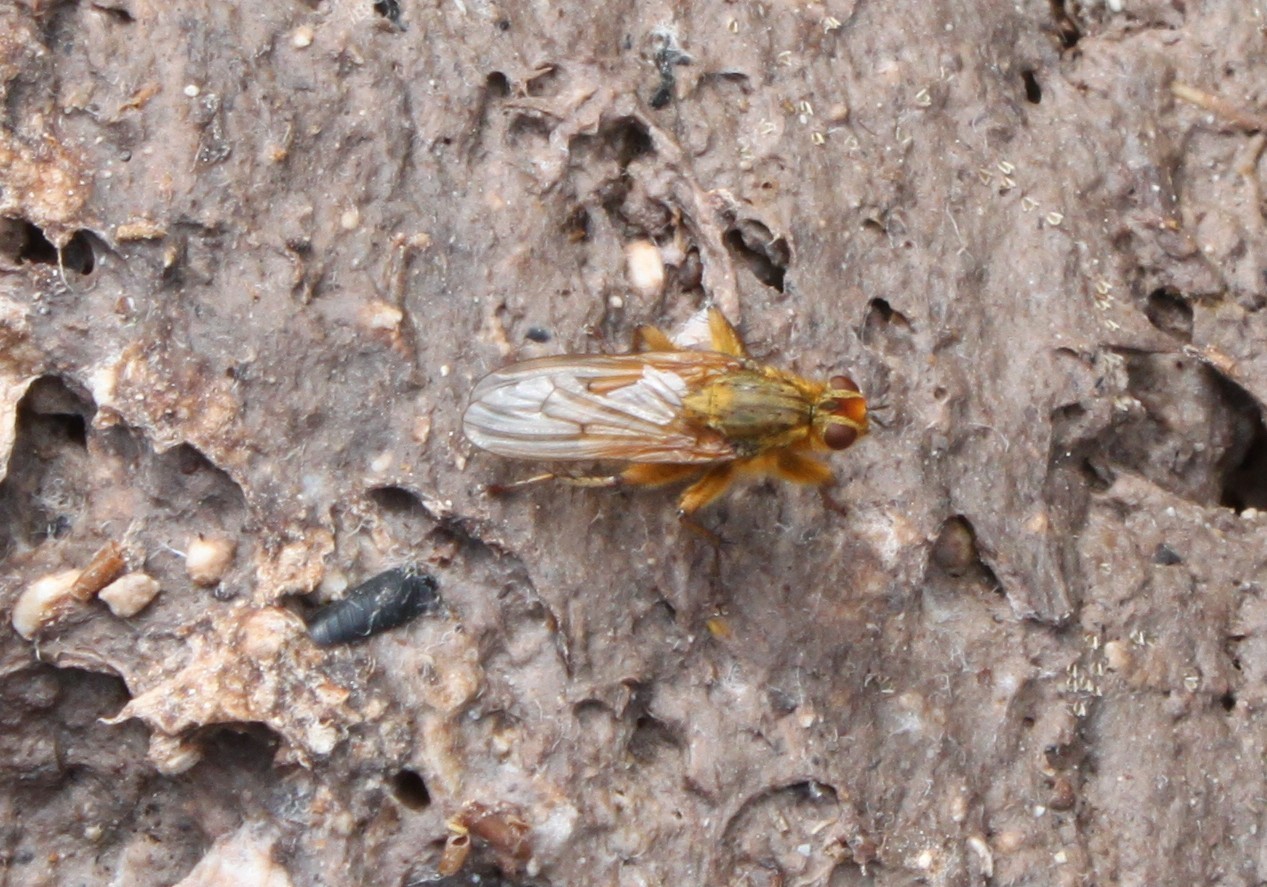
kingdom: Animalia
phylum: Arthropoda
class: Insecta
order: Diptera
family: Scathophagidae
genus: Scathophaga
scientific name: Scathophaga stercoraria
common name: Yellow dung fly
